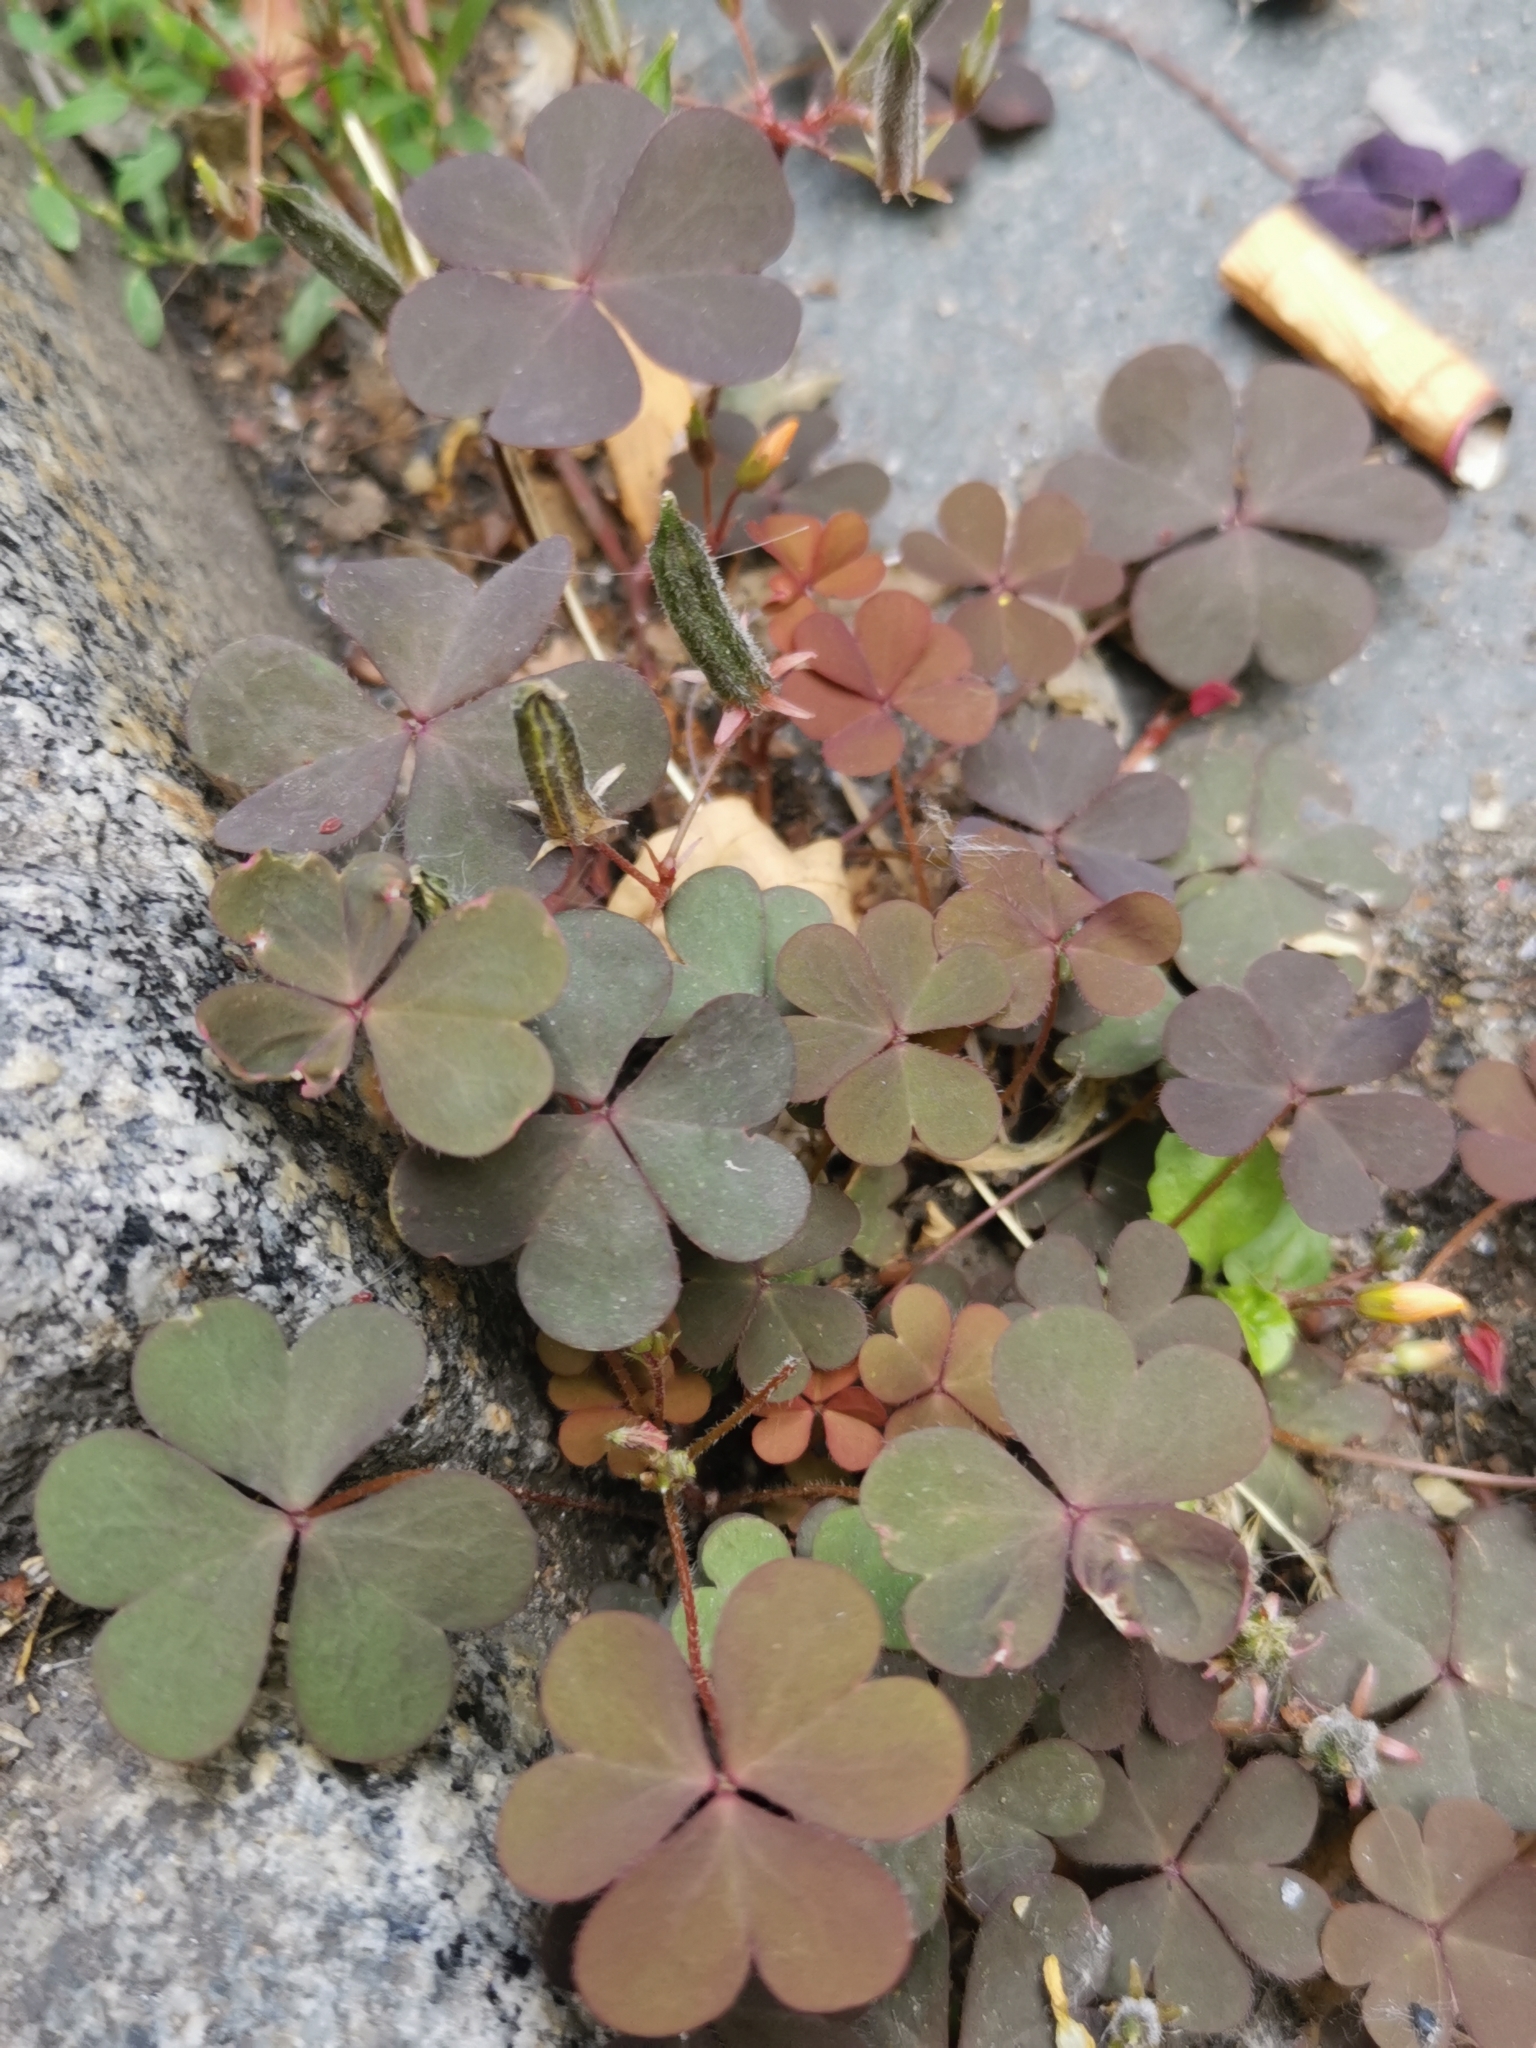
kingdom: Plantae
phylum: Tracheophyta
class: Magnoliopsida
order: Oxalidales
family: Oxalidaceae
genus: Oxalis
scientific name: Oxalis corniculata
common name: Procumbent yellow-sorrel
